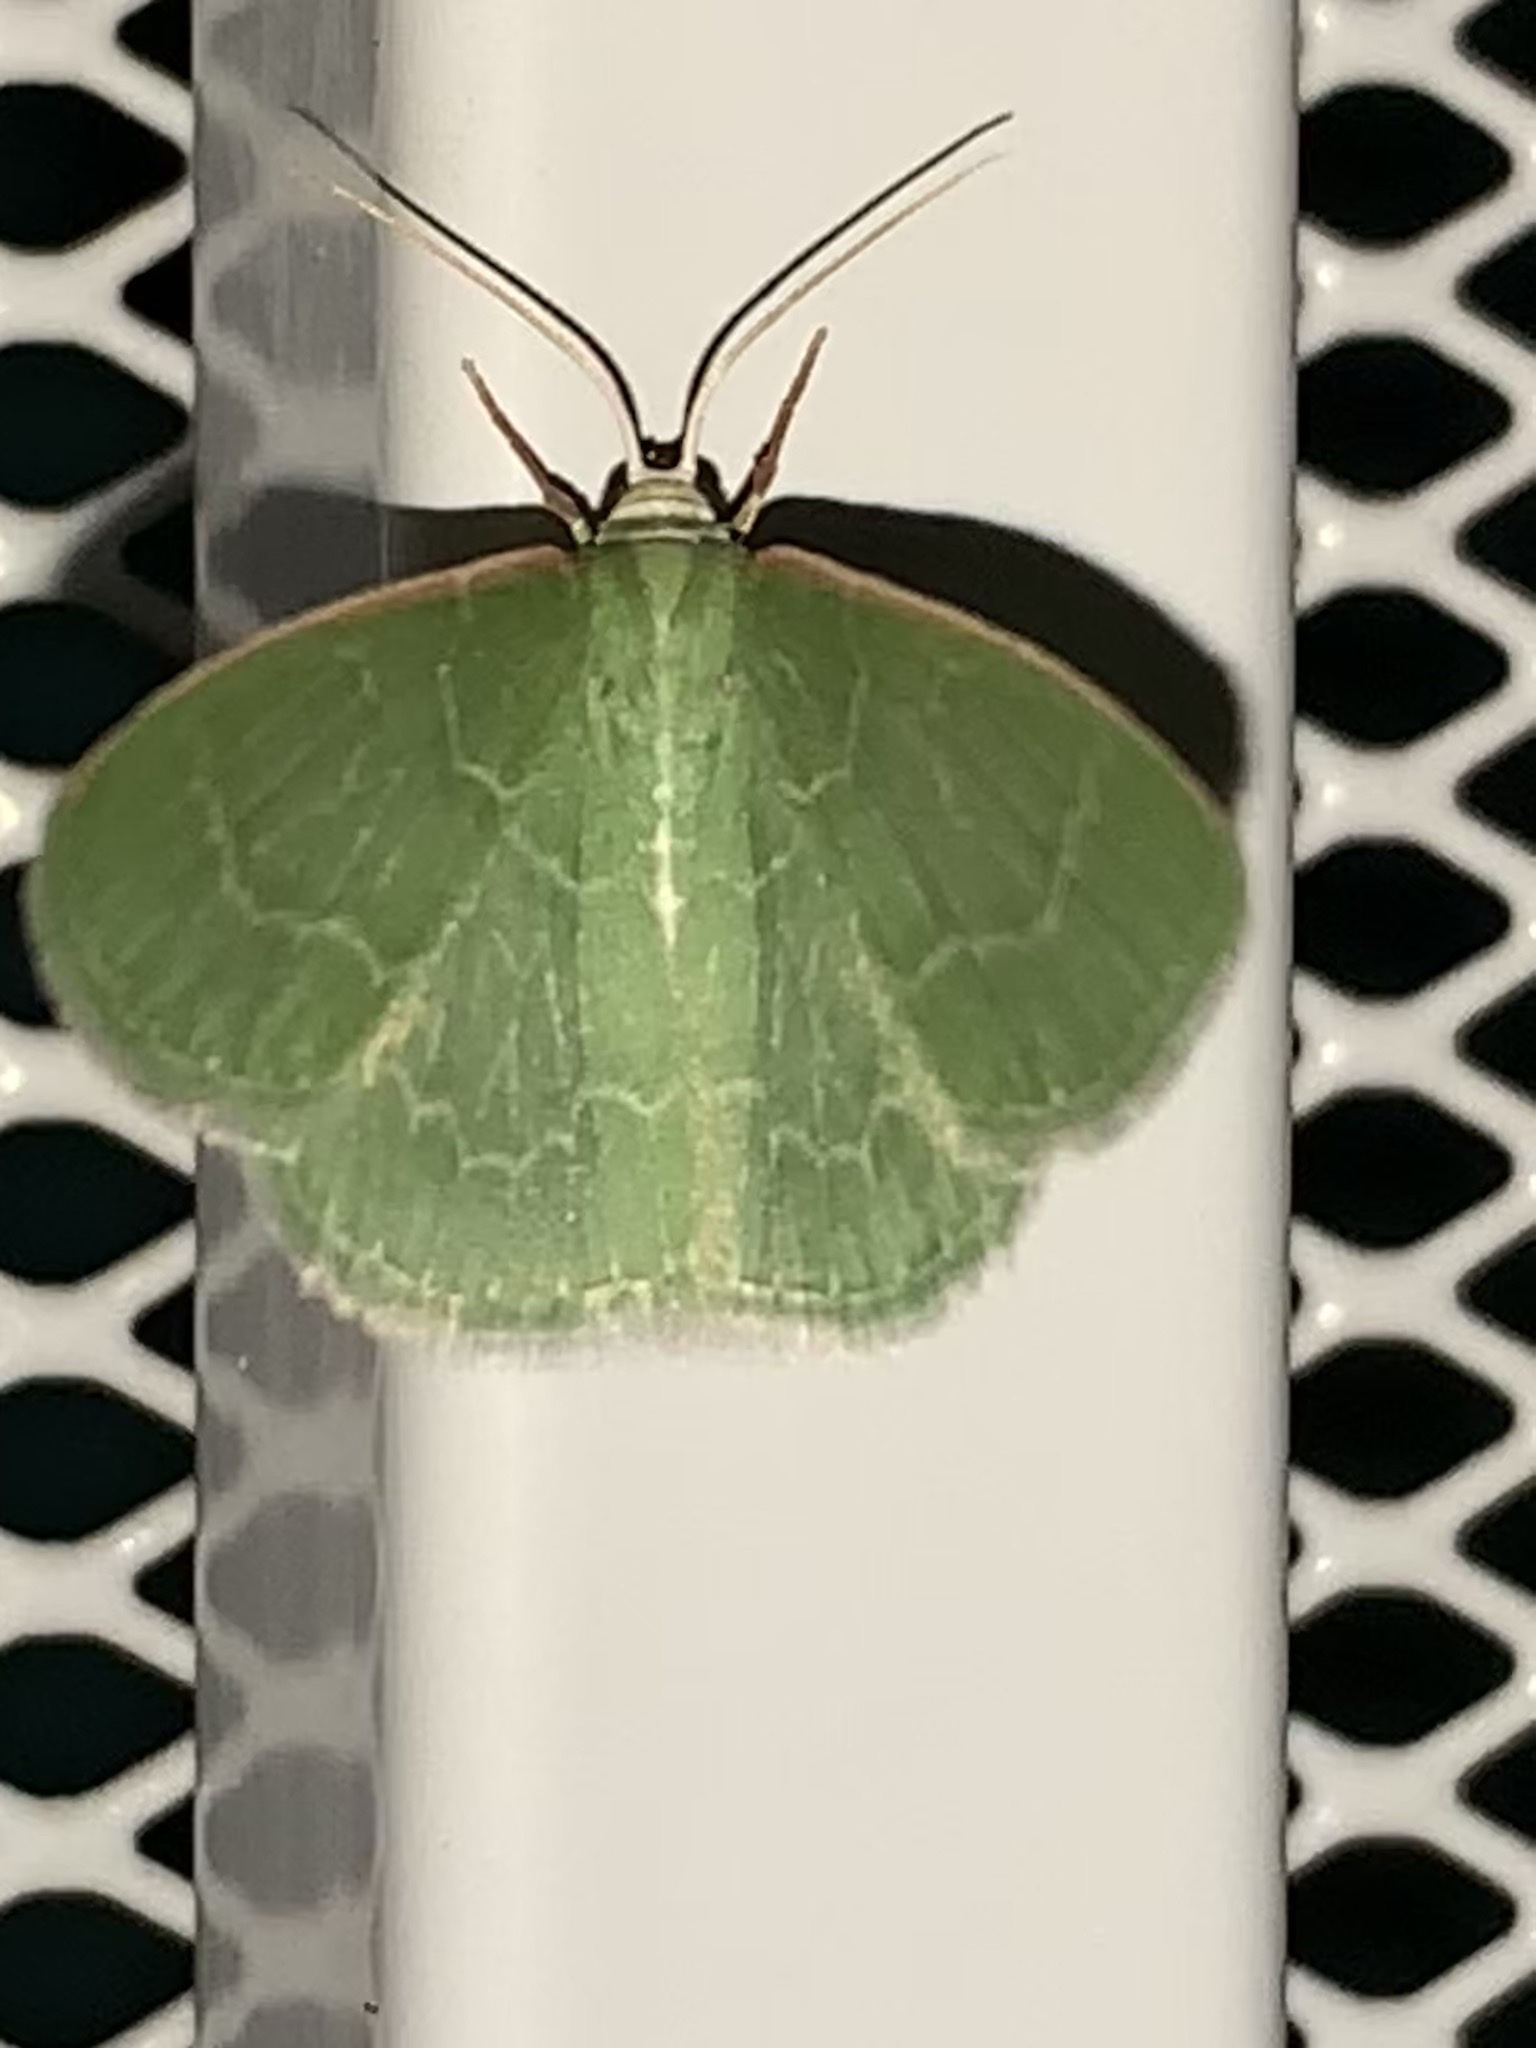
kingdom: Animalia
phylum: Arthropoda
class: Insecta
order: Lepidoptera
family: Geometridae
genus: Synchlora
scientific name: Synchlora aerata
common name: Wavy-lined emerald
